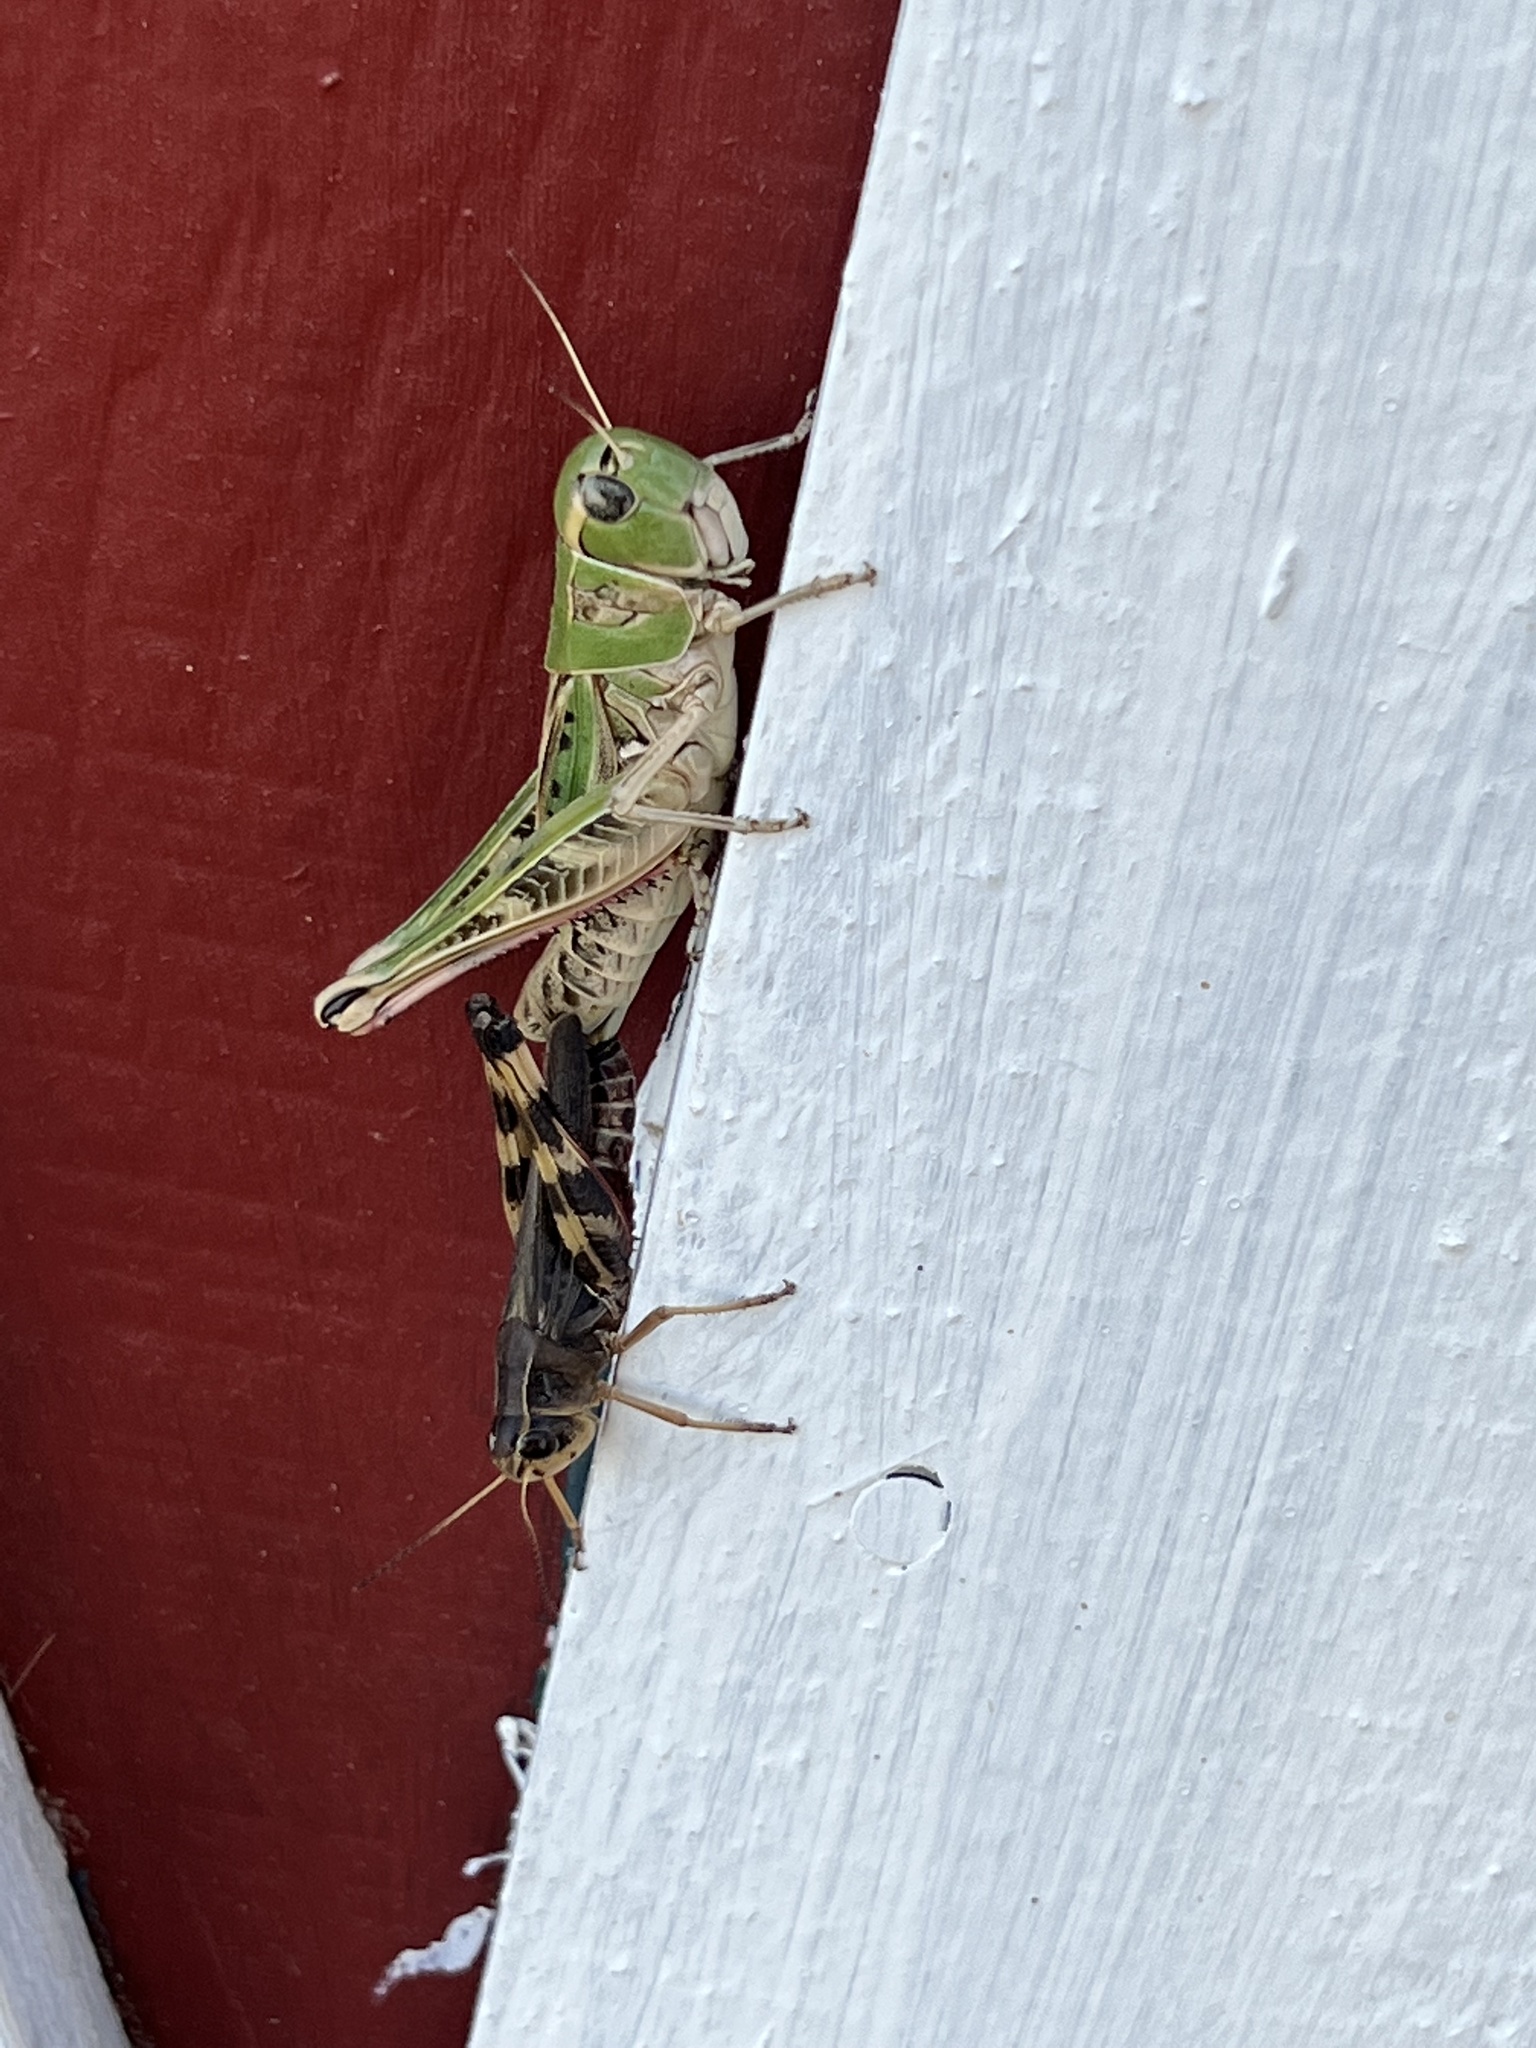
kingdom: Animalia
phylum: Arthropoda
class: Insecta
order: Orthoptera
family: Acrididae
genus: Boopedon
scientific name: Boopedon gracile
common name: Graceful range grasshopper
